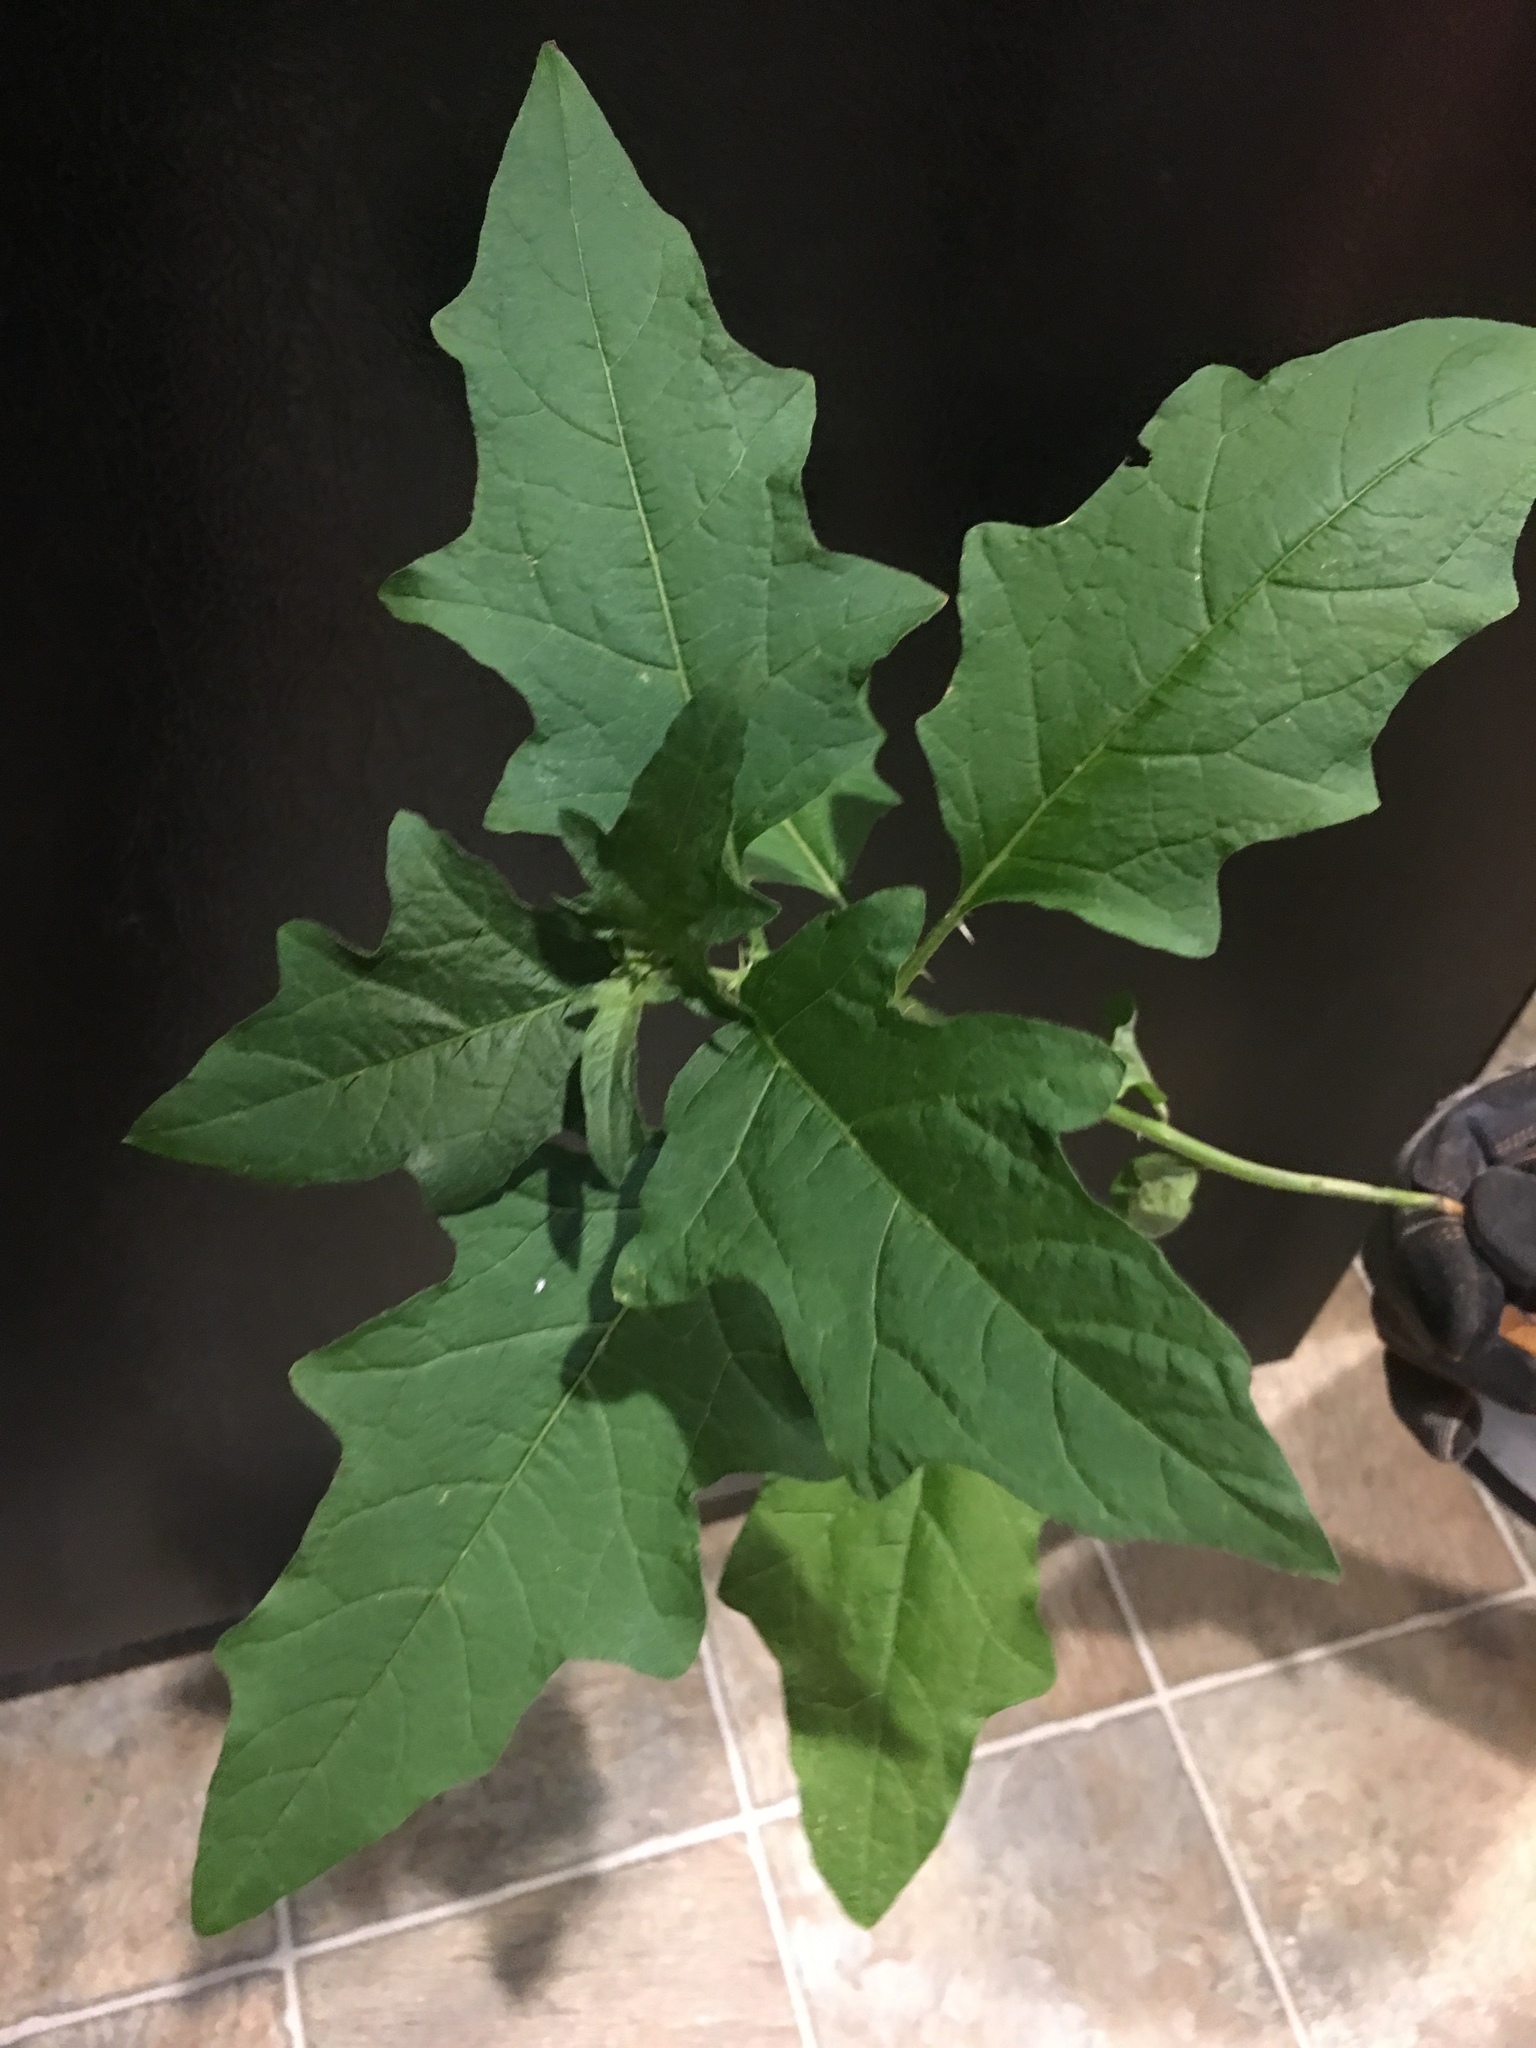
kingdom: Plantae
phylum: Tracheophyta
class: Magnoliopsida
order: Solanales
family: Solanaceae
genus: Solanum
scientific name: Solanum carolinense
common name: Horse-nettle
